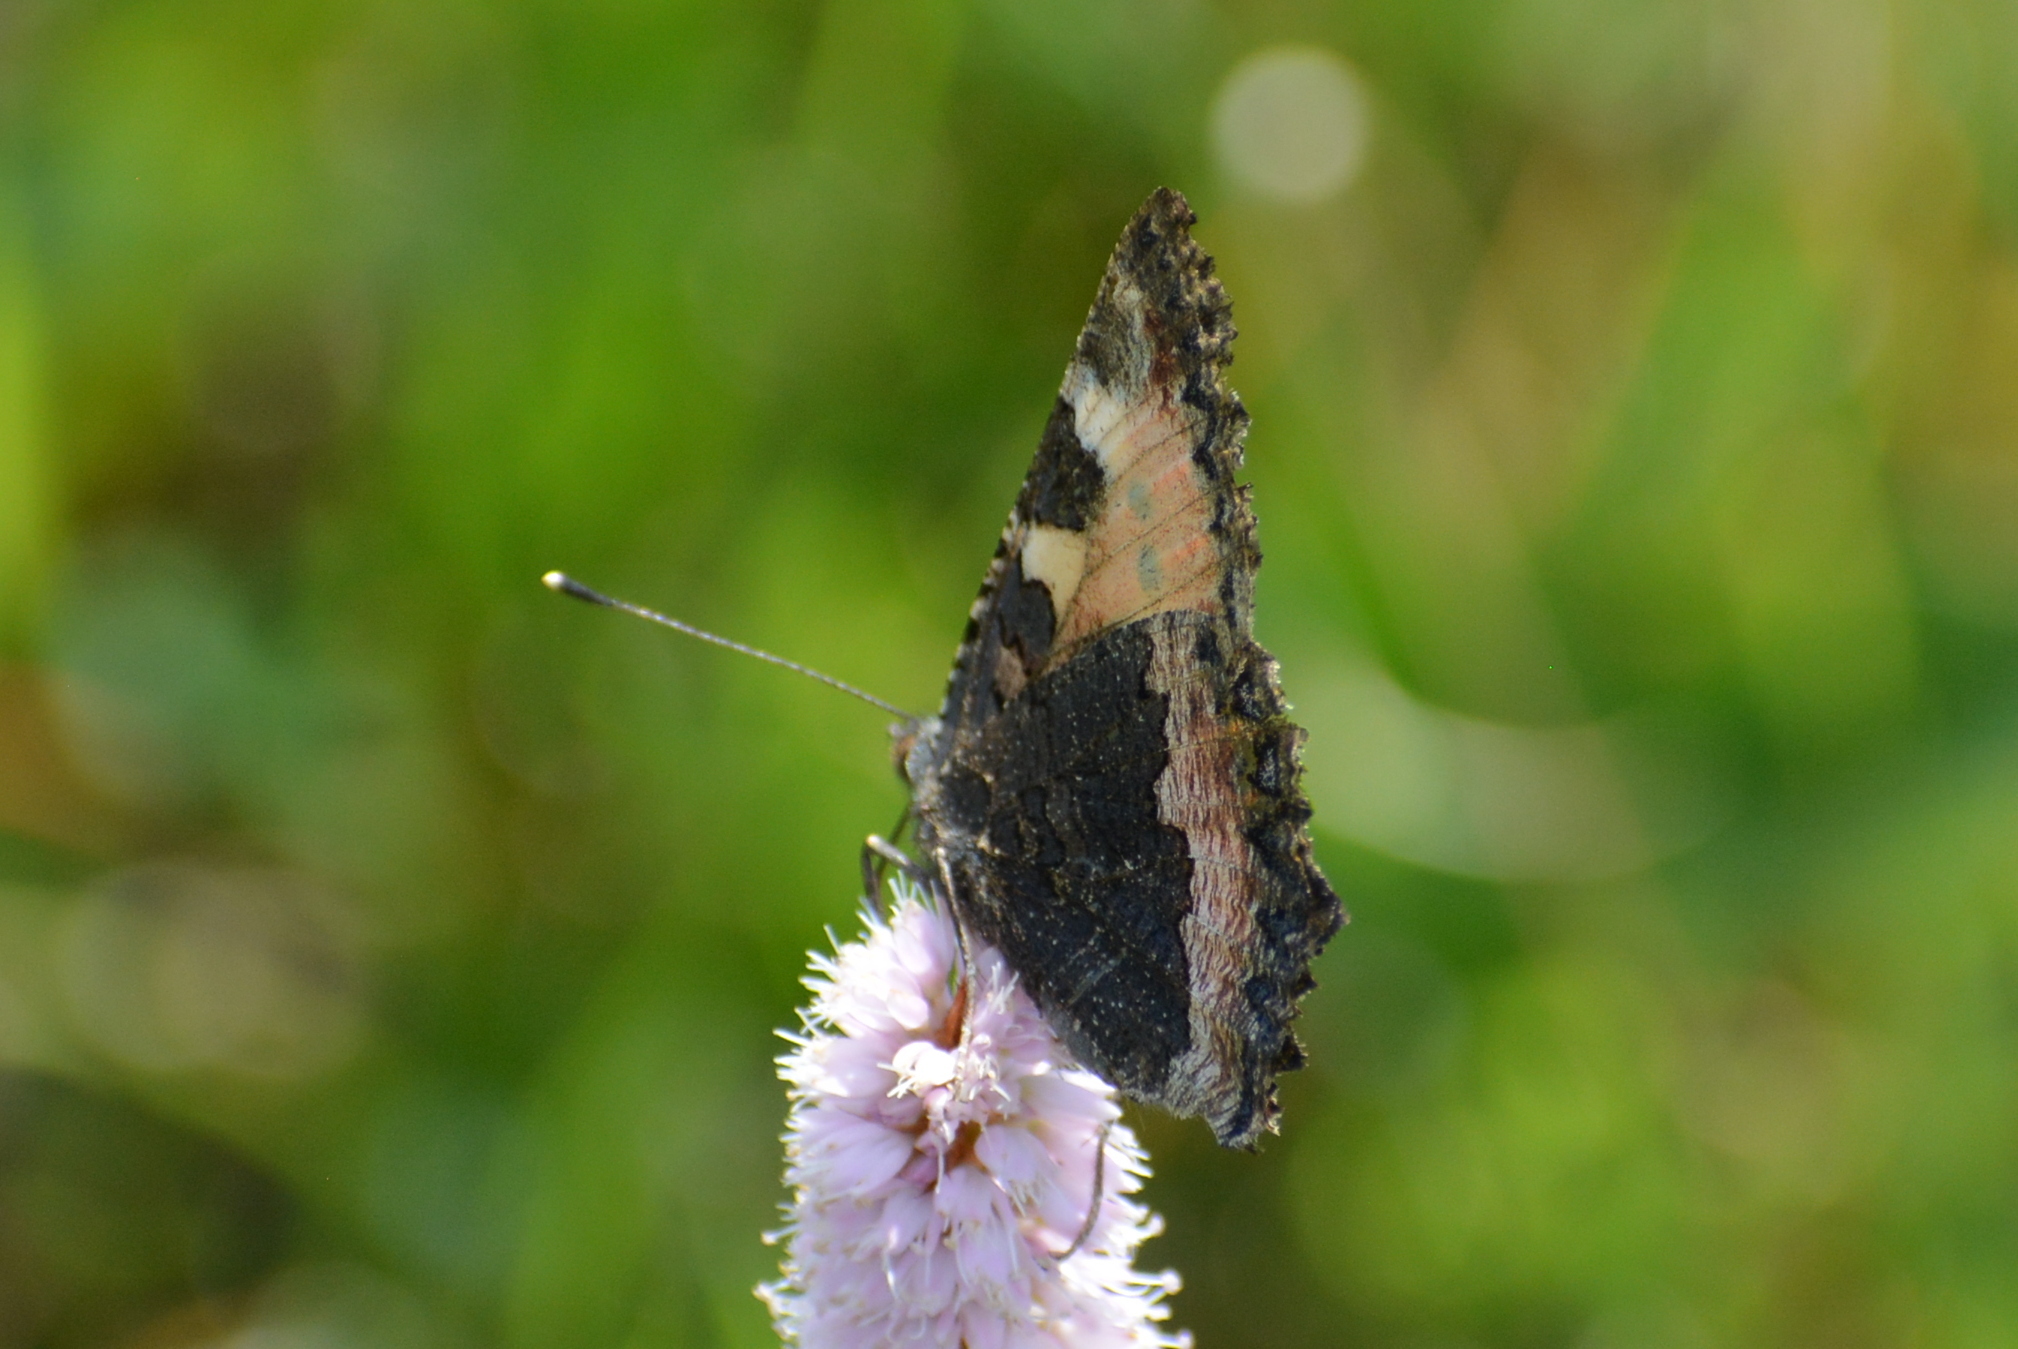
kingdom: Animalia
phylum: Arthropoda
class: Insecta
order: Lepidoptera
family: Nymphalidae
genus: Aglais
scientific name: Aglais urticae
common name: Small tortoiseshell
